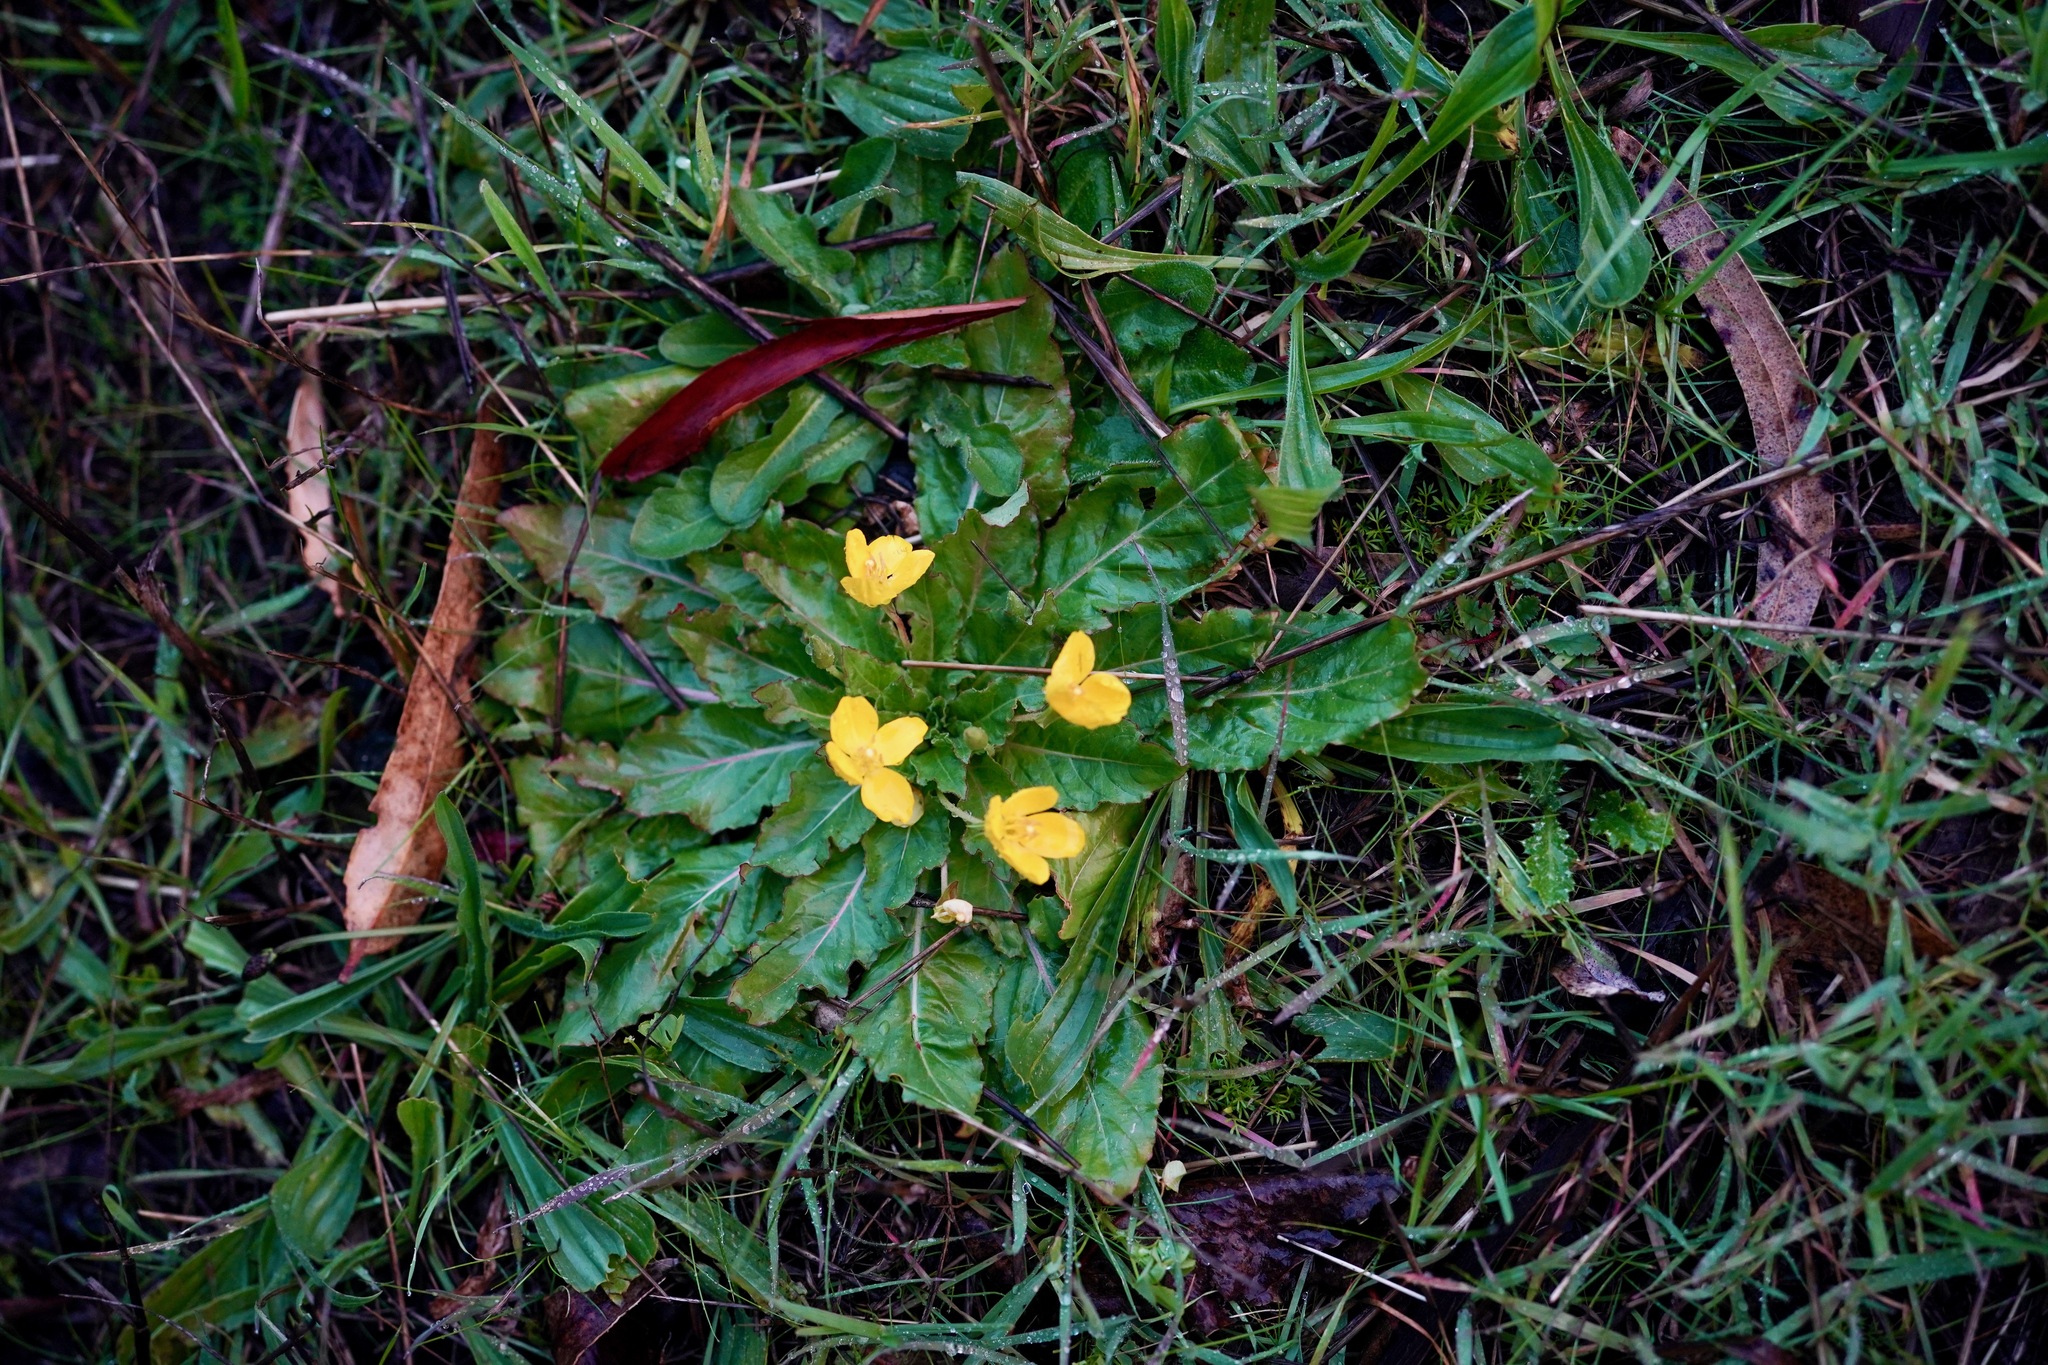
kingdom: Plantae
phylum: Tracheophyta
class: Magnoliopsida
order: Myrtales
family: Onagraceae
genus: Taraxia
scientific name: Taraxia ovata
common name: Goldeneggs
